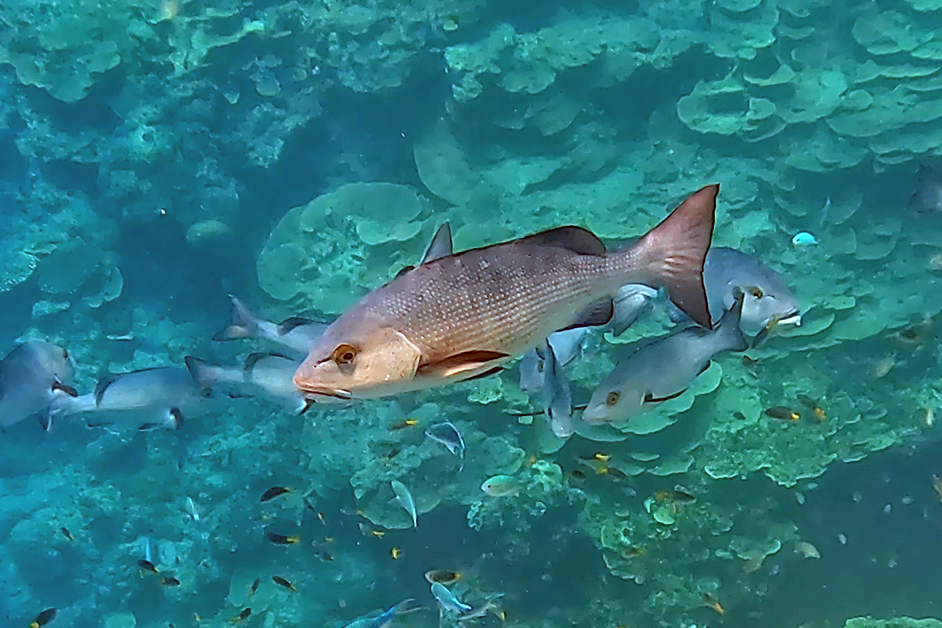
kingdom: Animalia
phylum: Chordata
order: Perciformes
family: Lutjanidae
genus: Lutjanus
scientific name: Lutjanus bohar
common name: Red bass
